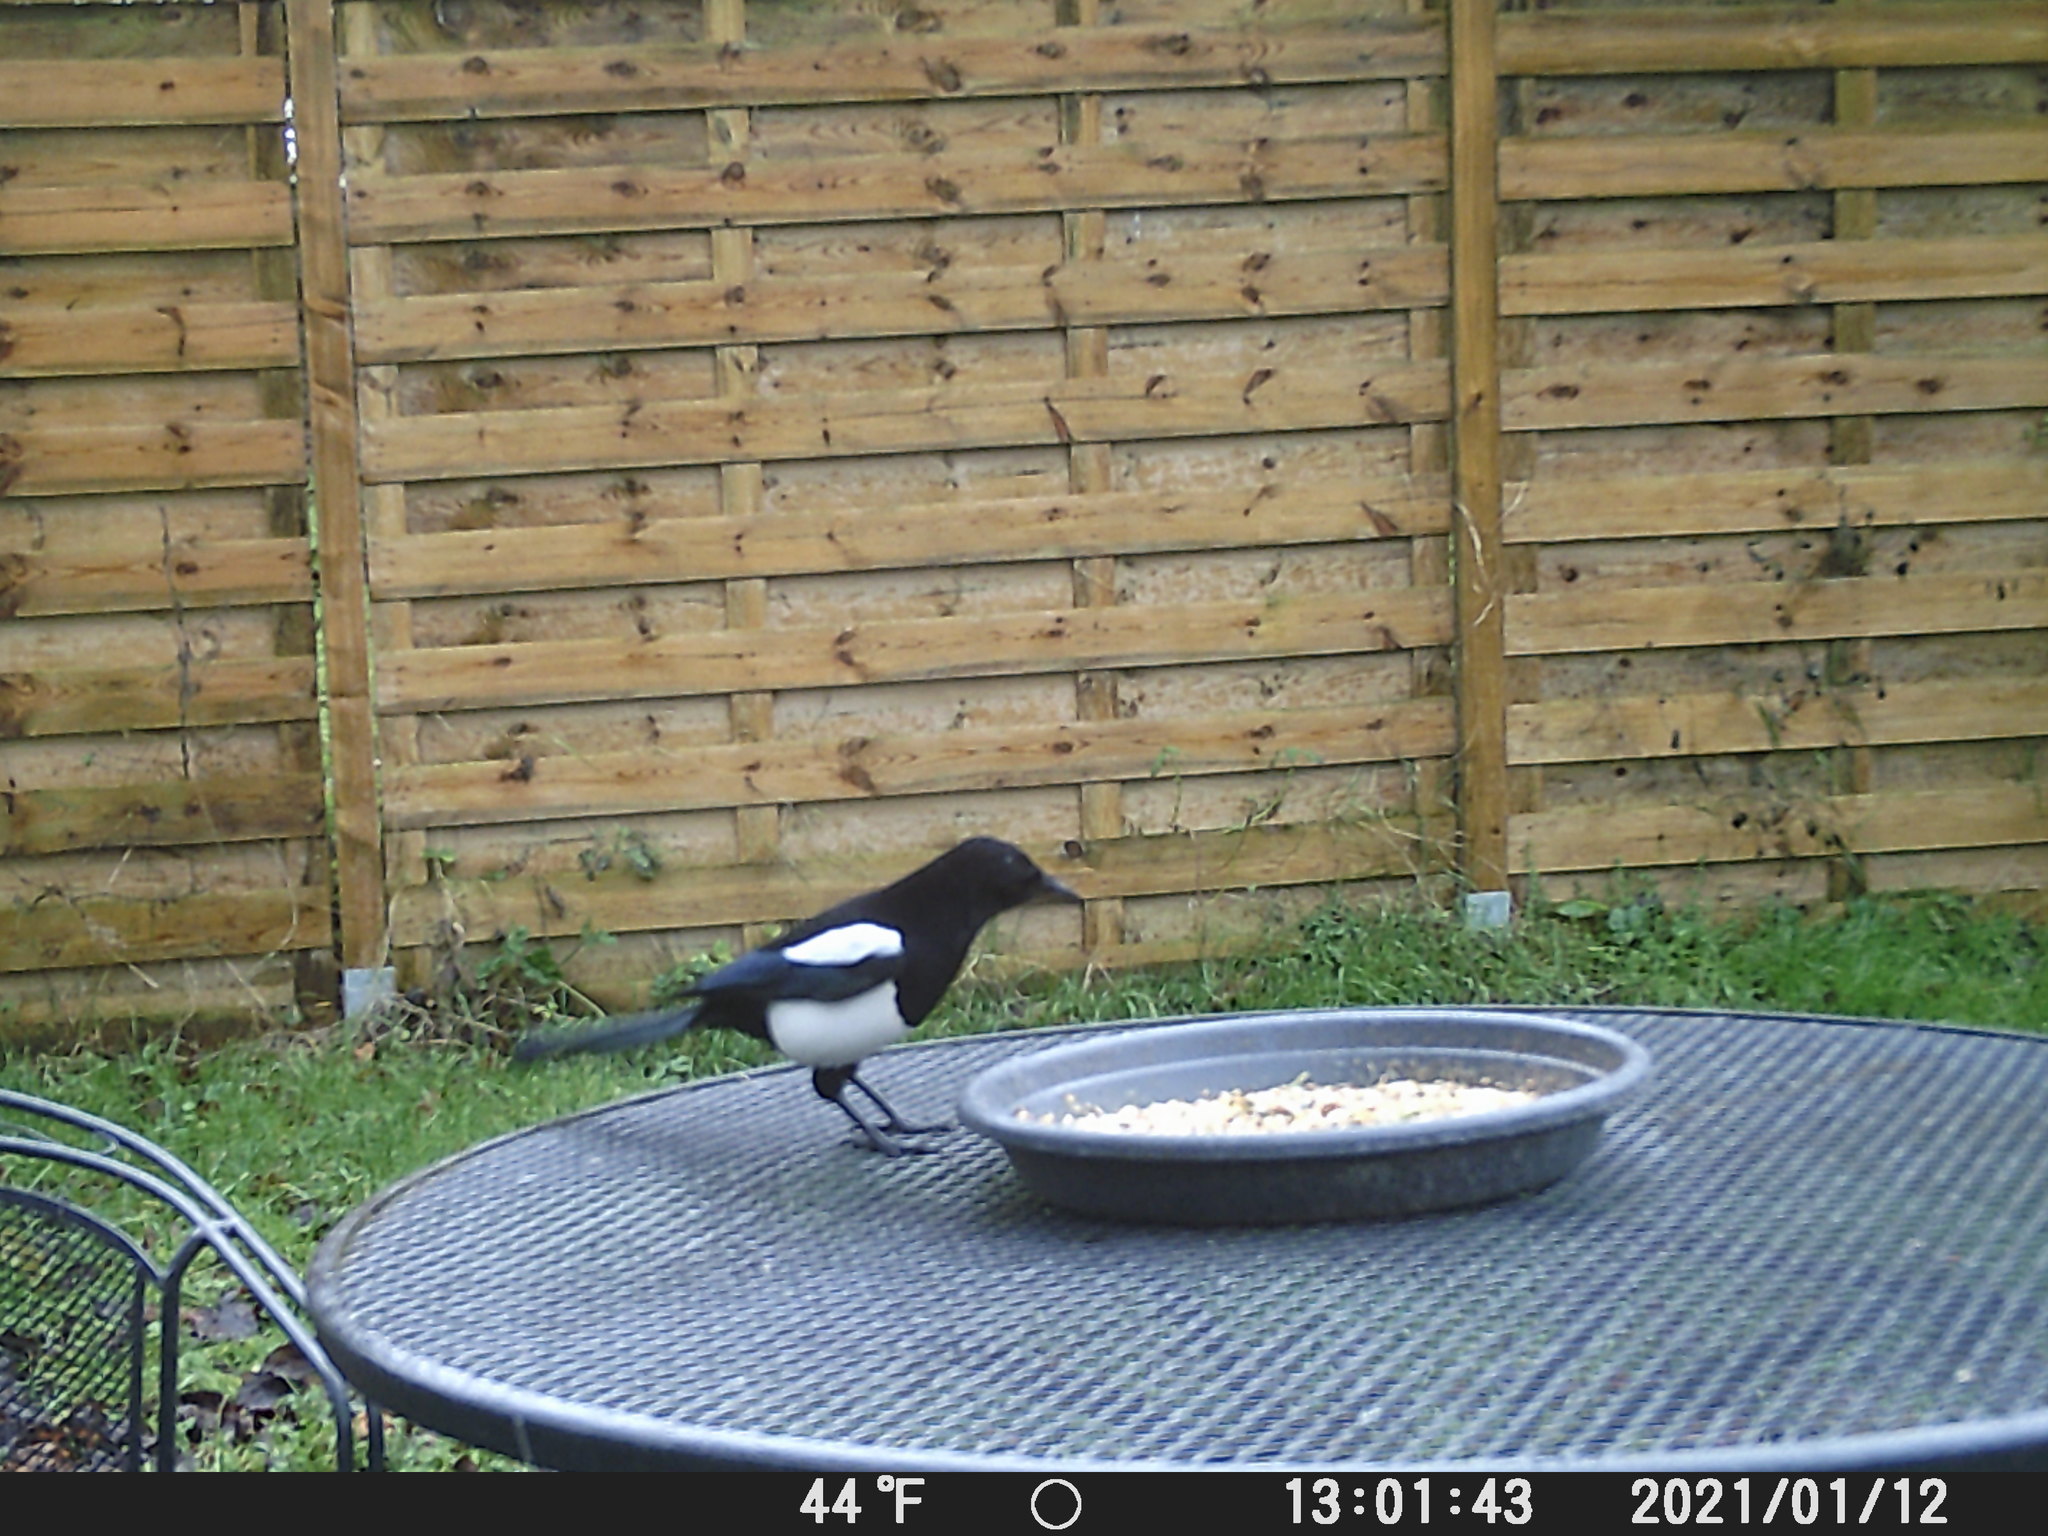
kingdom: Animalia
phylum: Chordata
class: Aves
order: Passeriformes
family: Corvidae
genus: Pica
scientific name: Pica pica
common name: Eurasian magpie
